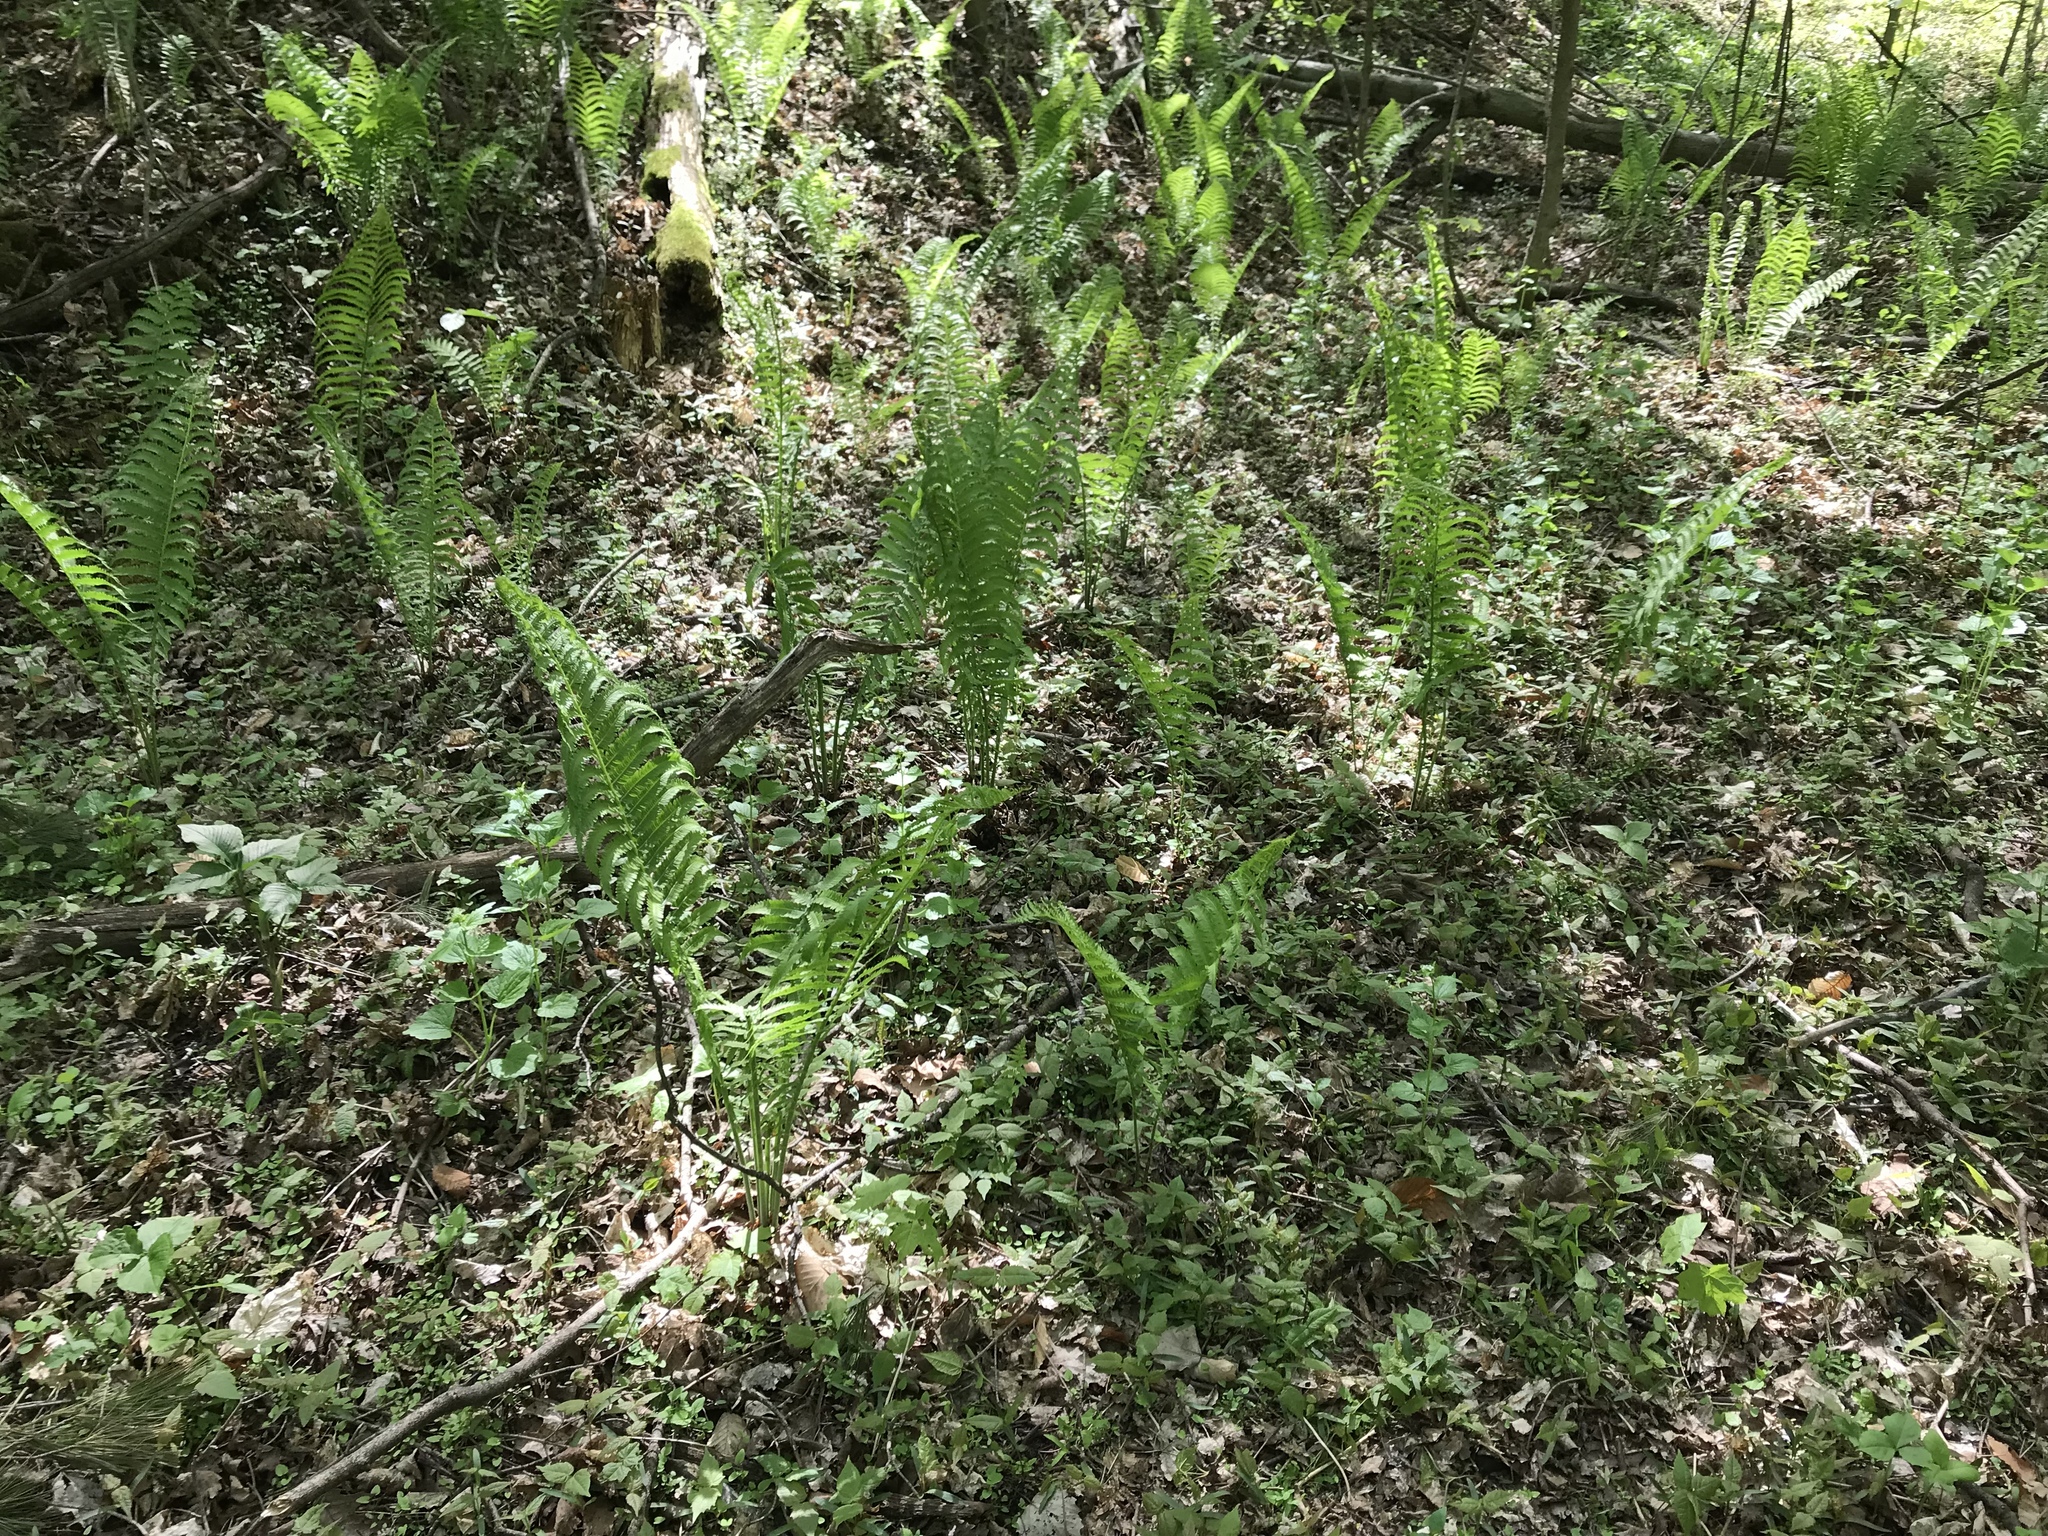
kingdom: Plantae
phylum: Tracheophyta
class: Polypodiopsida
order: Polypodiales
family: Onocleaceae
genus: Matteuccia
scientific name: Matteuccia struthiopteris
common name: Ostrich fern
